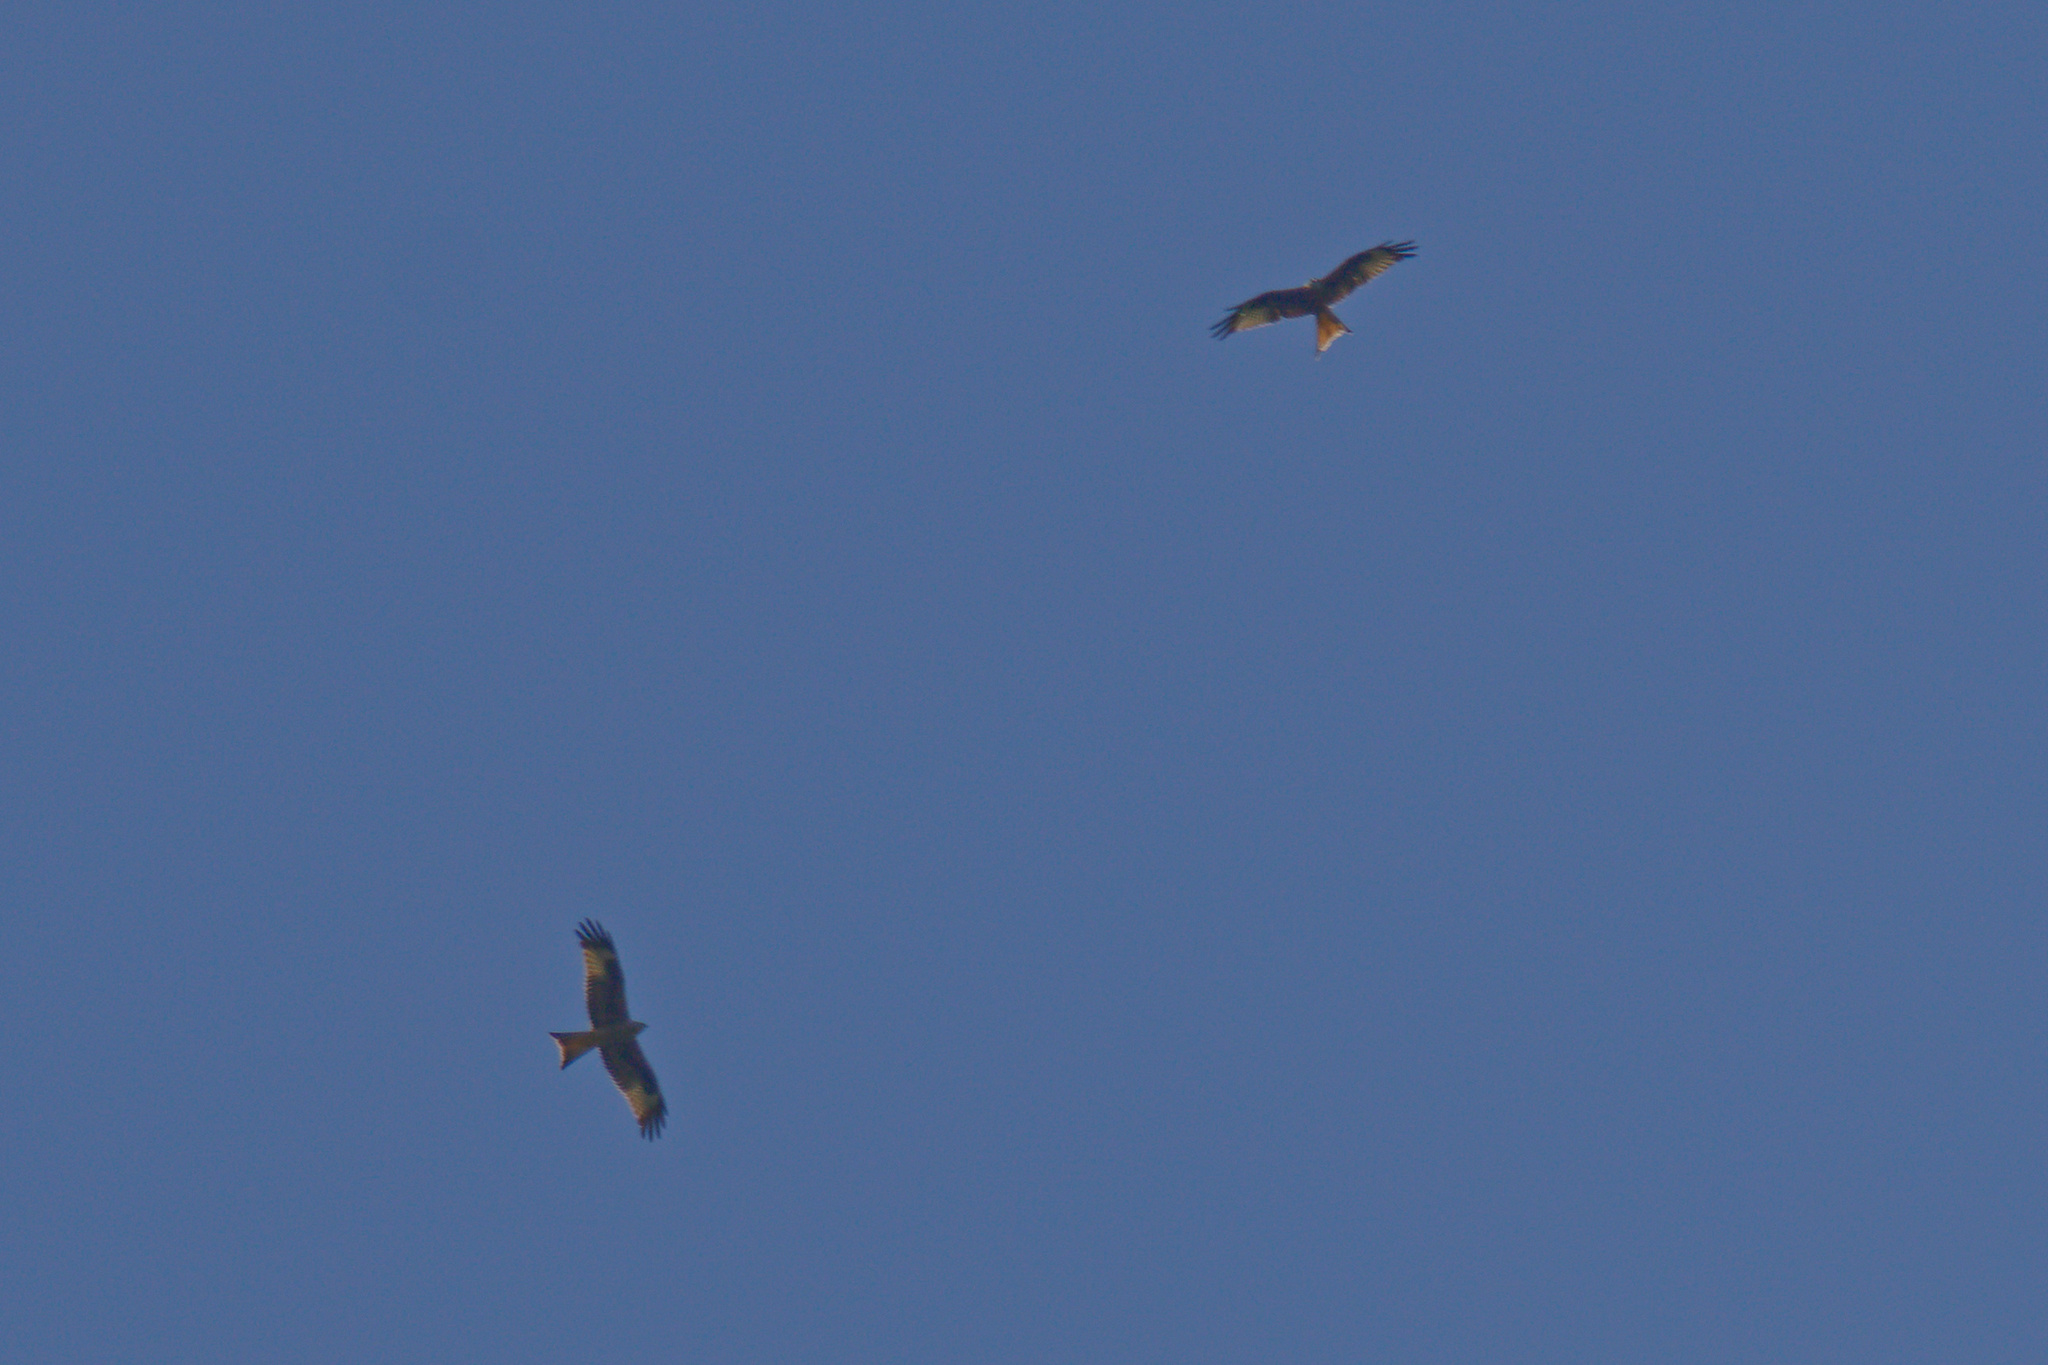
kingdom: Animalia
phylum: Chordata
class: Aves
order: Accipitriformes
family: Accipitridae
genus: Milvus
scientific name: Milvus milvus
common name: Red kite
